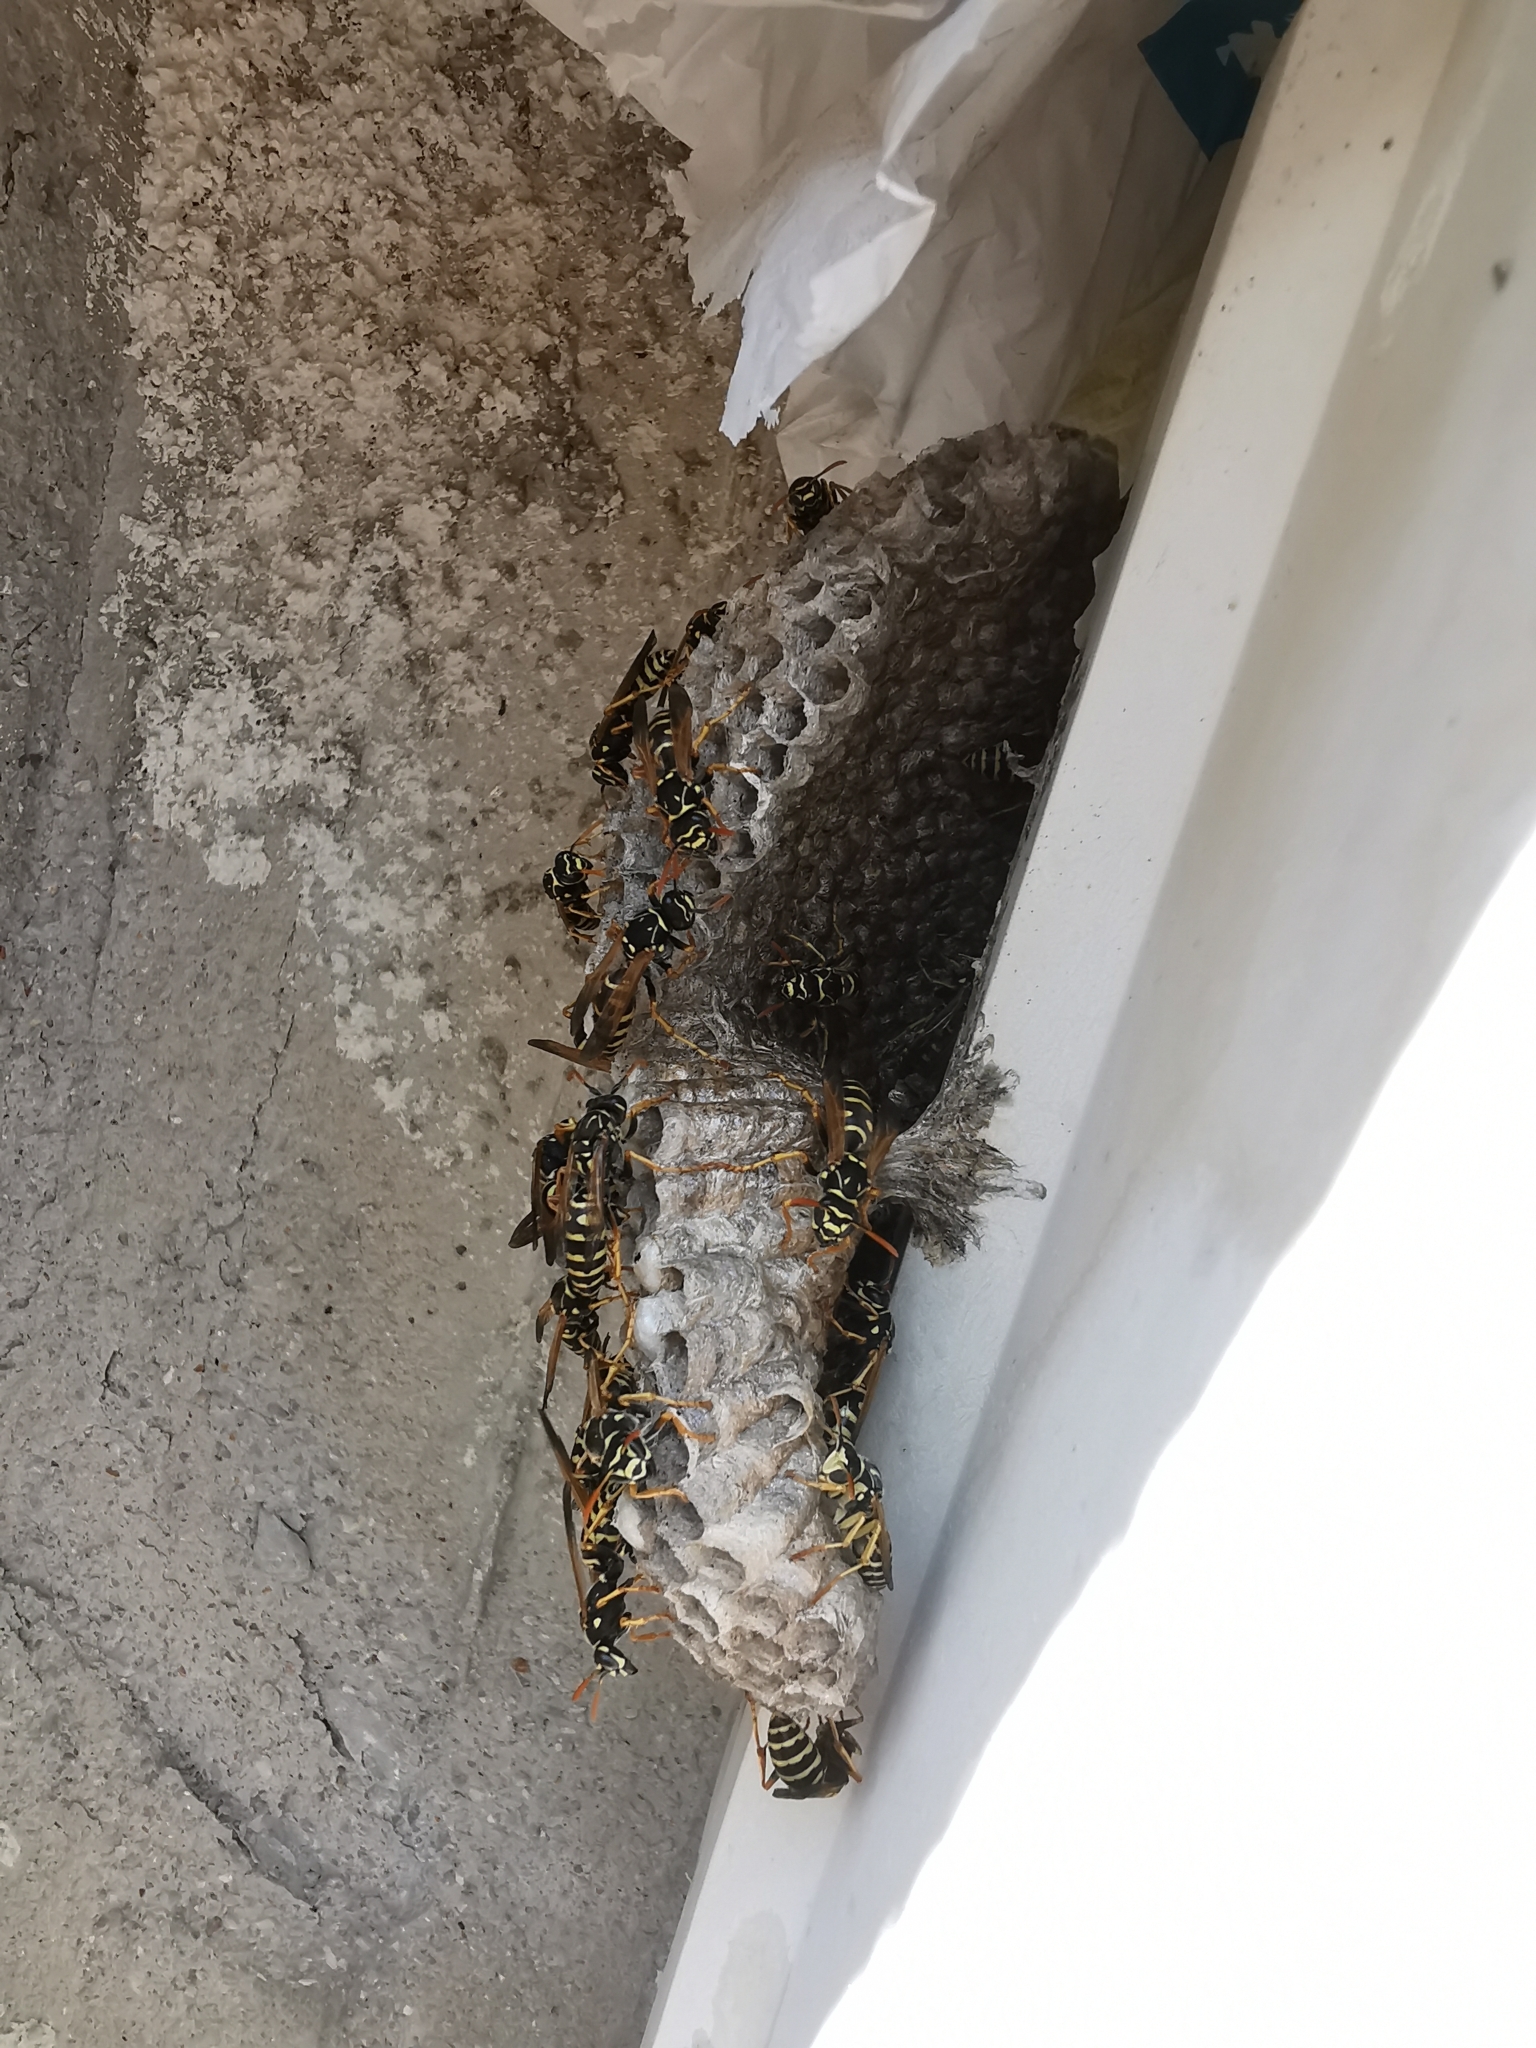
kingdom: Animalia
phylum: Arthropoda
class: Insecta
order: Hymenoptera
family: Eumenidae
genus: Polistes
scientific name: Polistes nimpha
